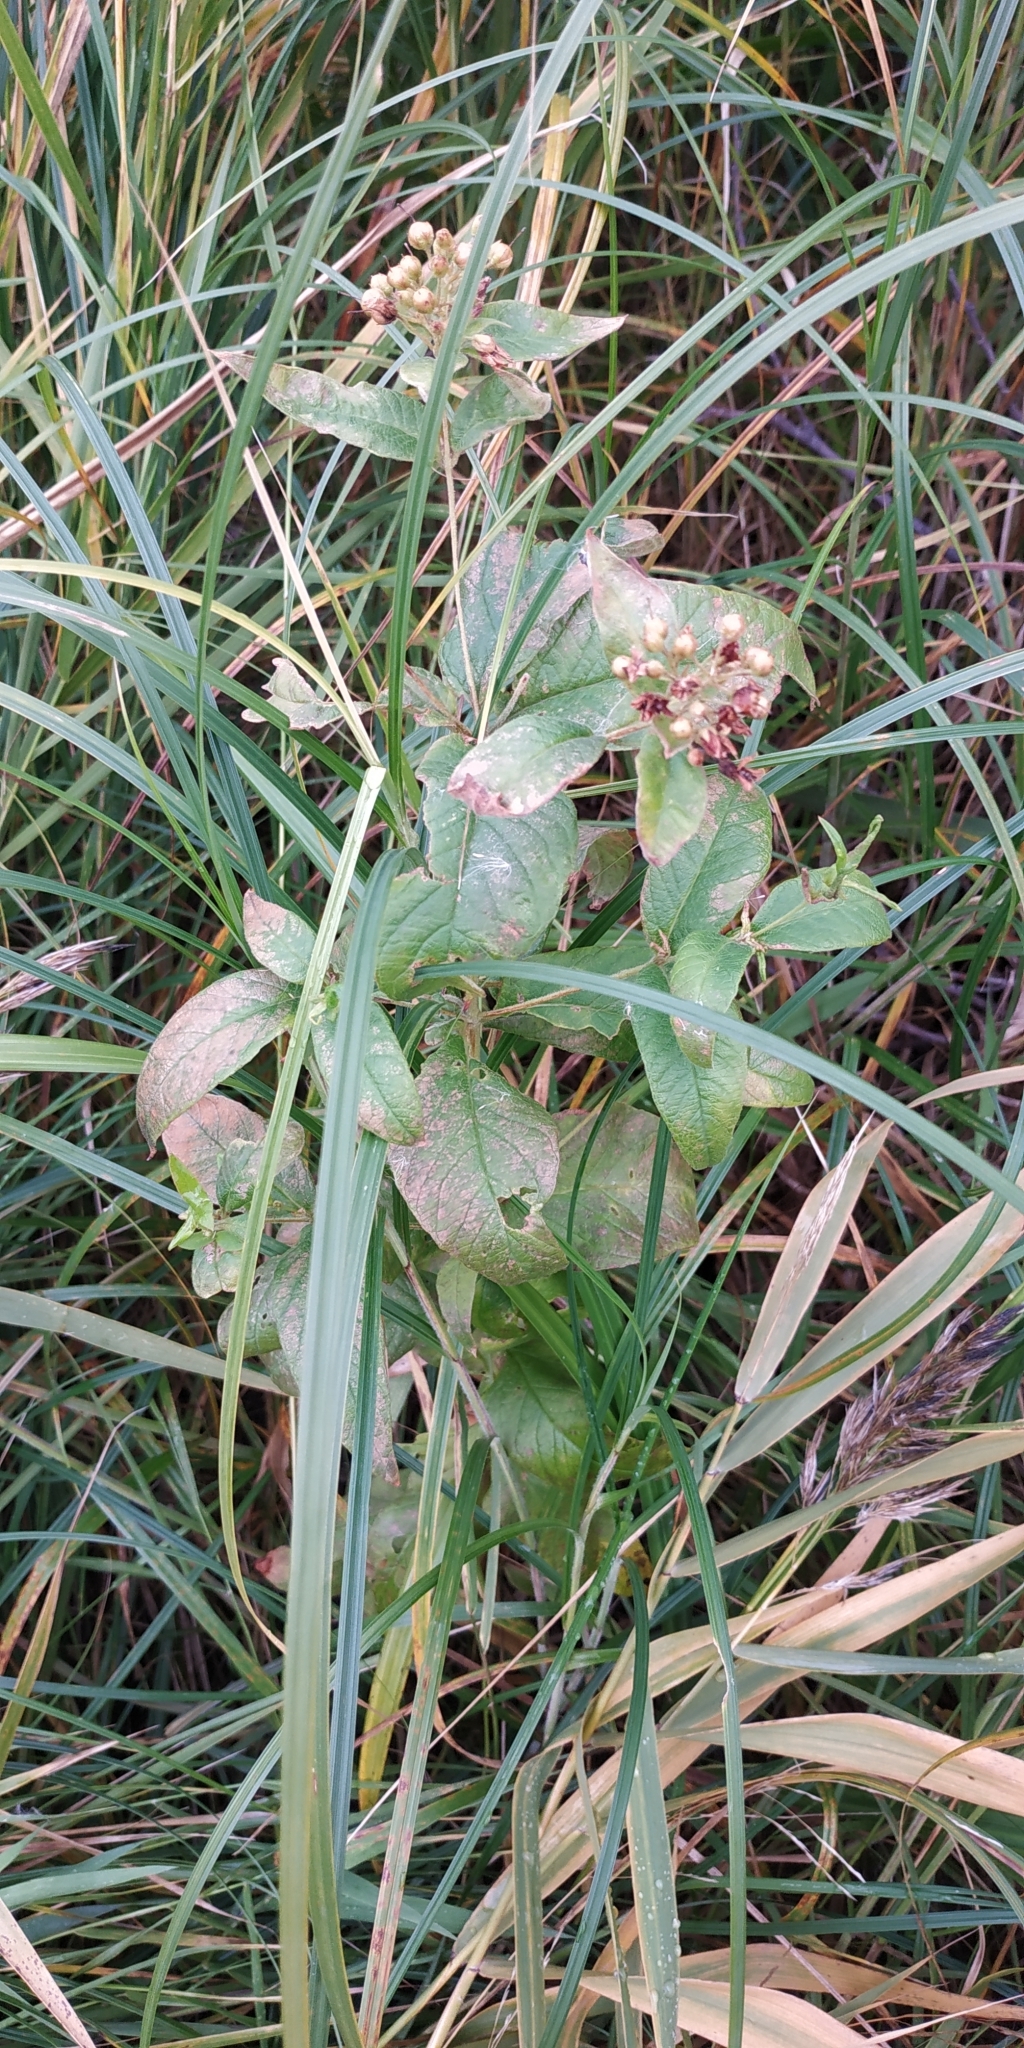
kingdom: Plantae
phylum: Tracheophyta
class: Magnoliopsida
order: Ericales
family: Primulaceae
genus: Lysimachia
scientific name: Lysimachia vulgaris
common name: Yellow loosestrife
